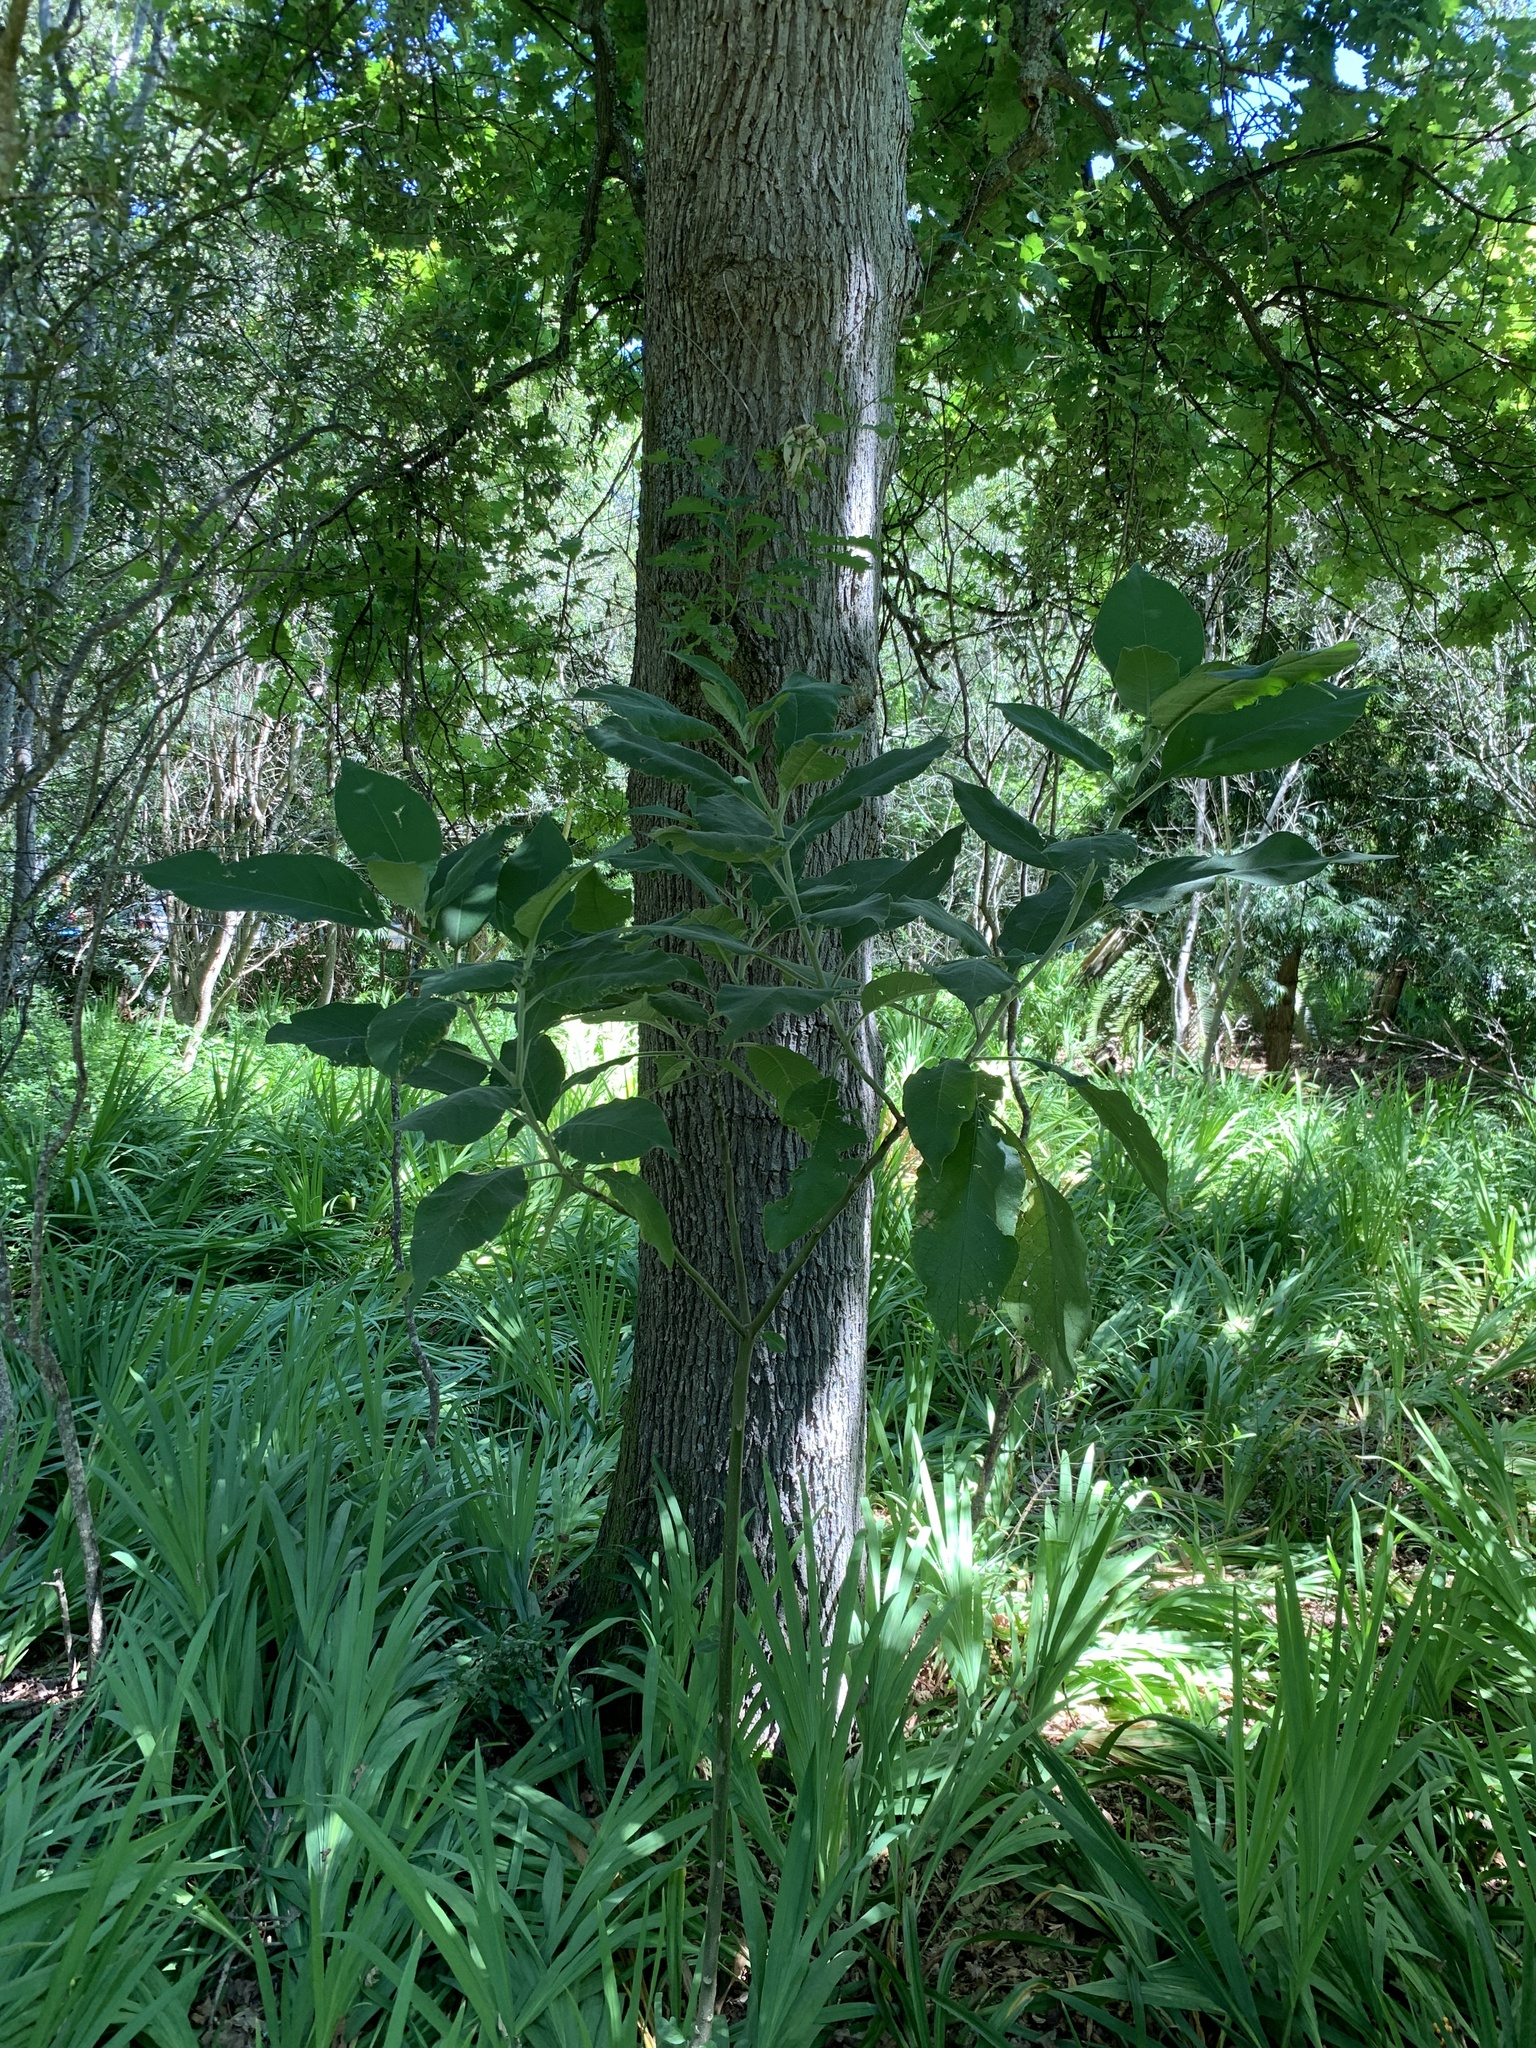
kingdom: Plantae
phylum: Tracheophyta
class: Magnoliopsida
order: Solanales
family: Solanaceae
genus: Solanum
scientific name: Solanum mauritianum
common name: Earleaf nightshade
